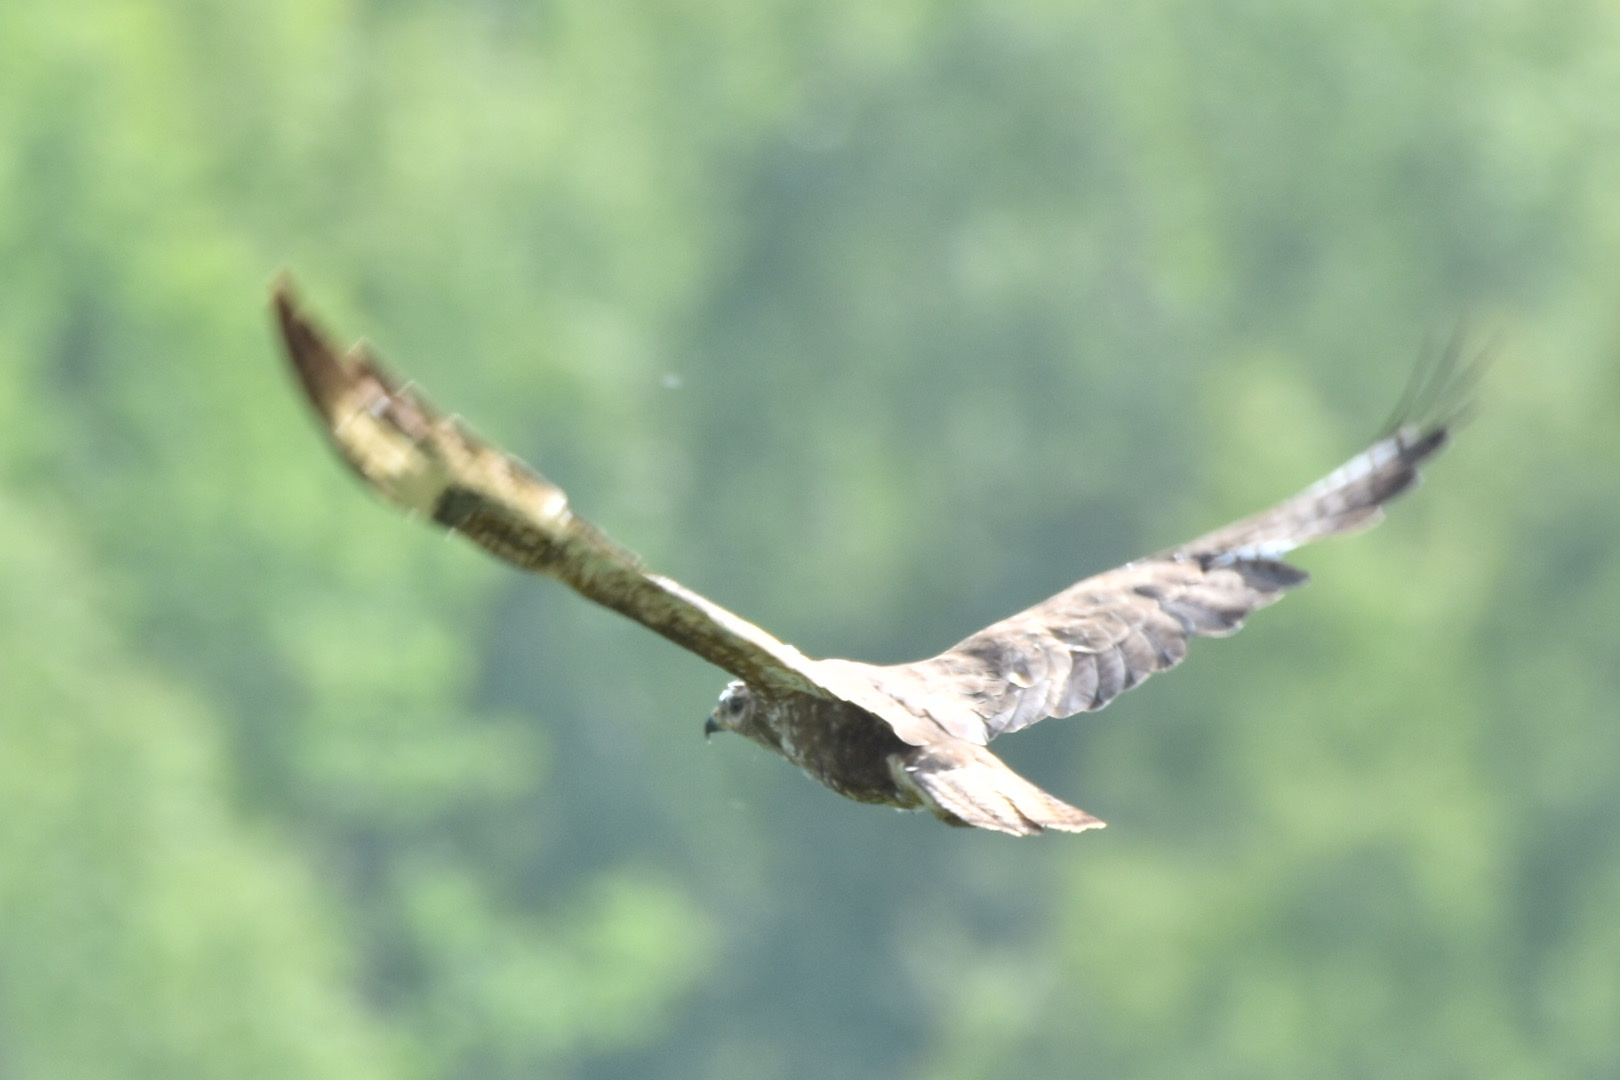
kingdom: Animalia
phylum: Chordata
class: Aves
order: Accipitriformes
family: Accipitridae
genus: Buteo
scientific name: Buteo buteo
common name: Common buzzard
